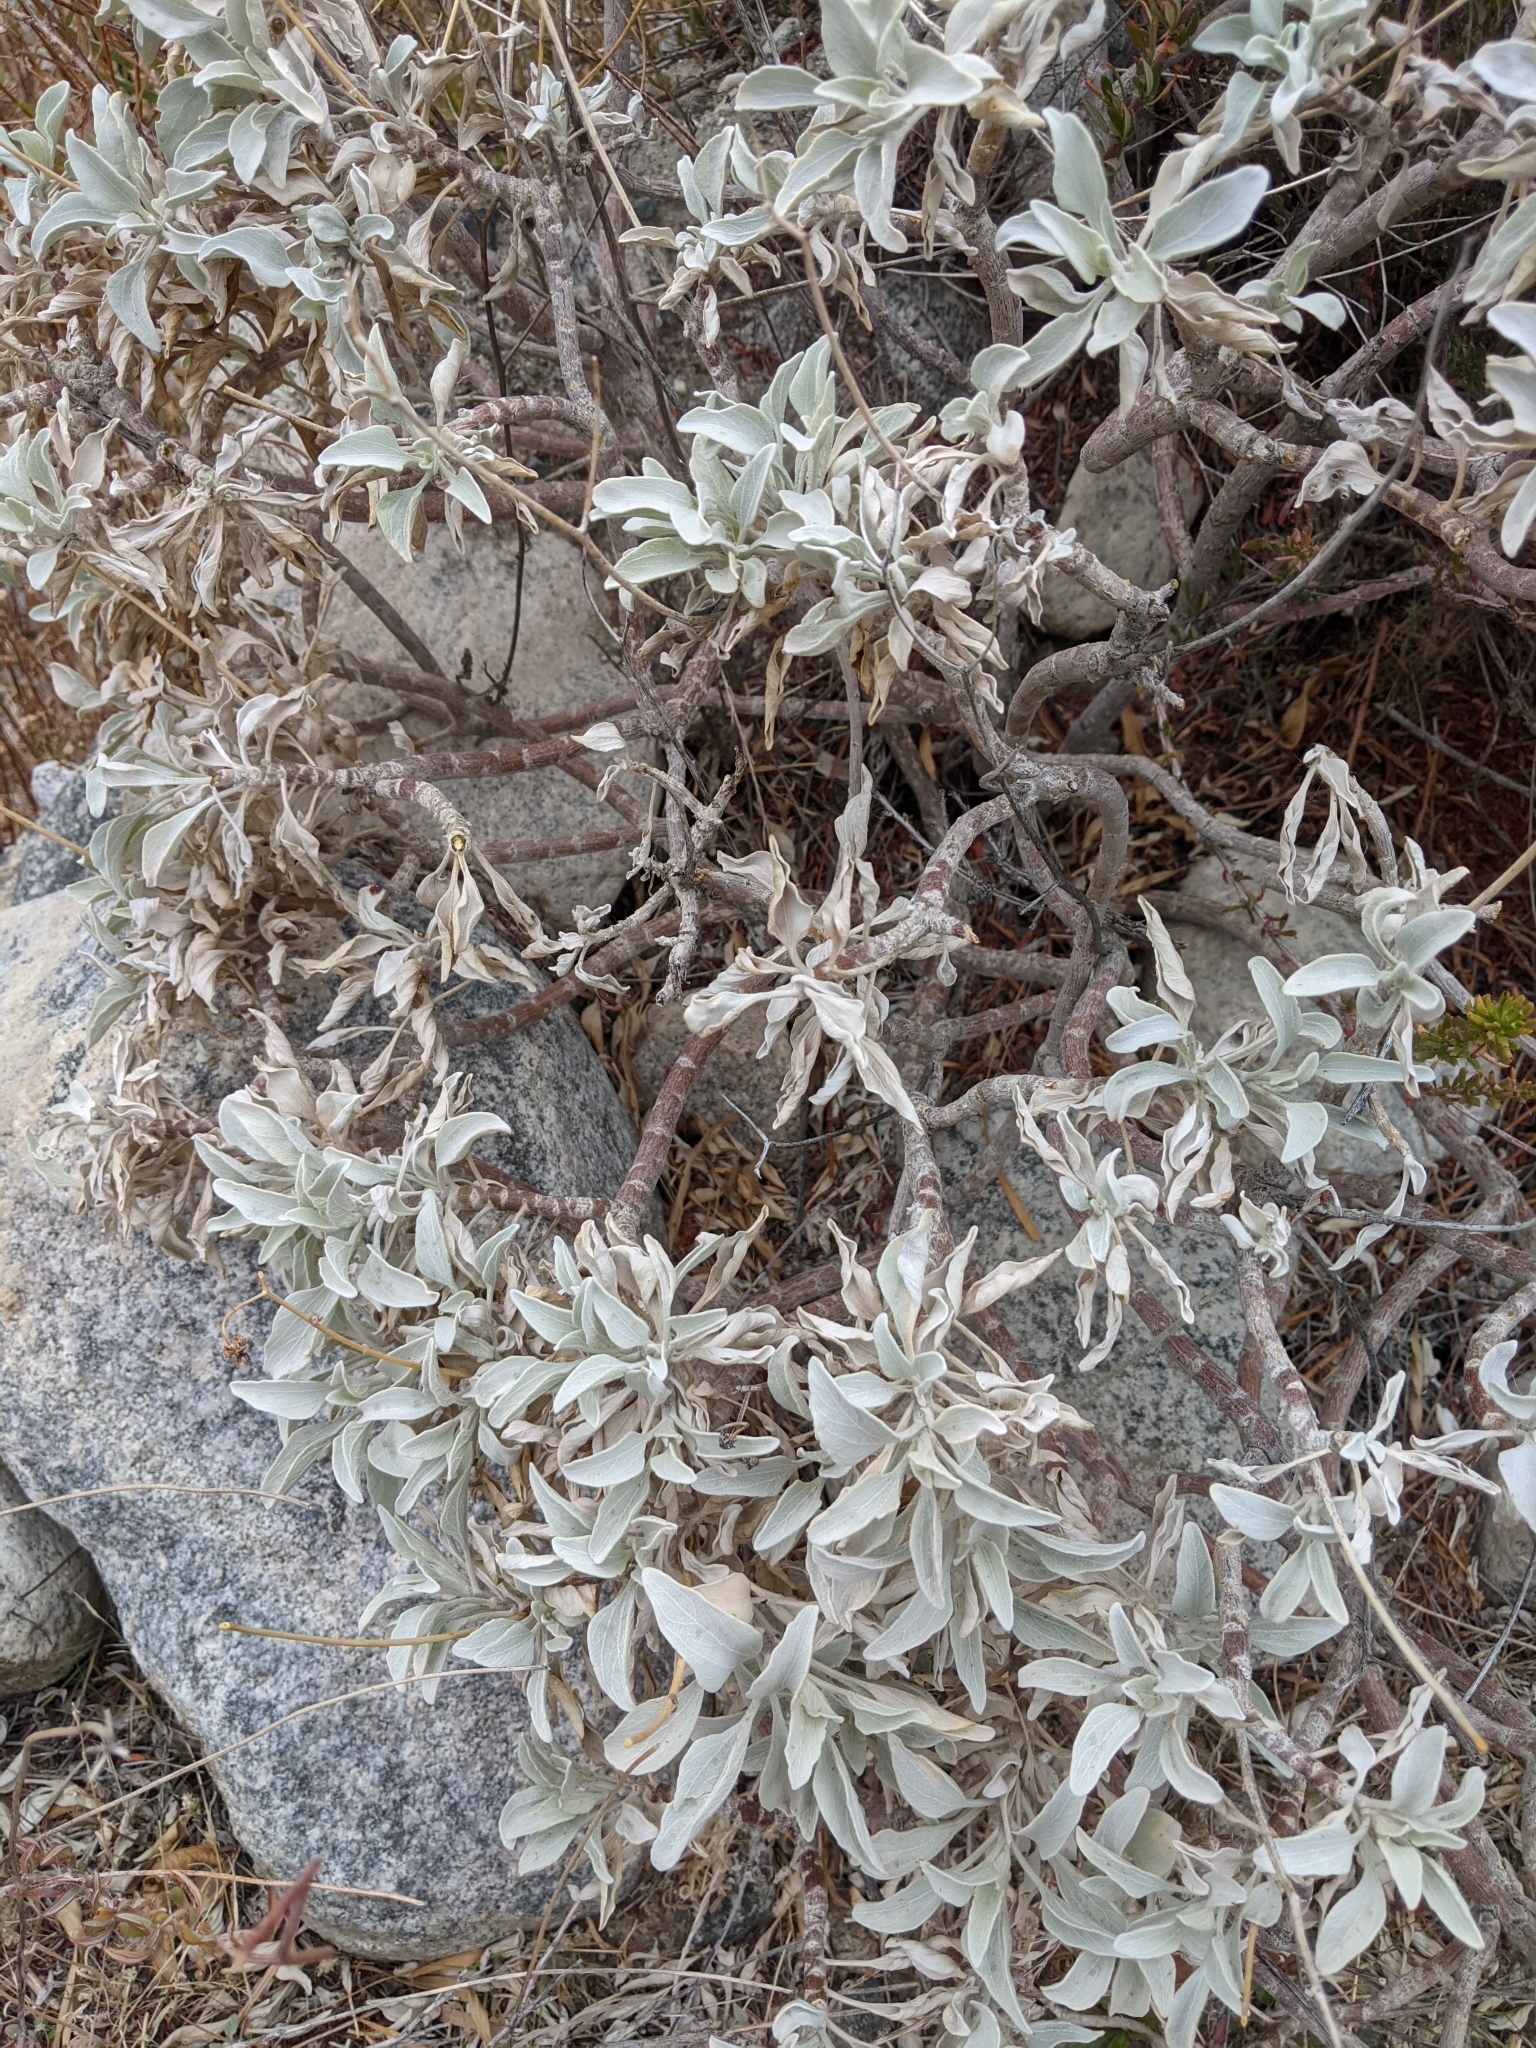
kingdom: Plantae
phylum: Tracheophyta
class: Magnoliopsida
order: Asterales
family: Asteraceae
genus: Encelia
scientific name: Encelia farinosa
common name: Brittlebush
